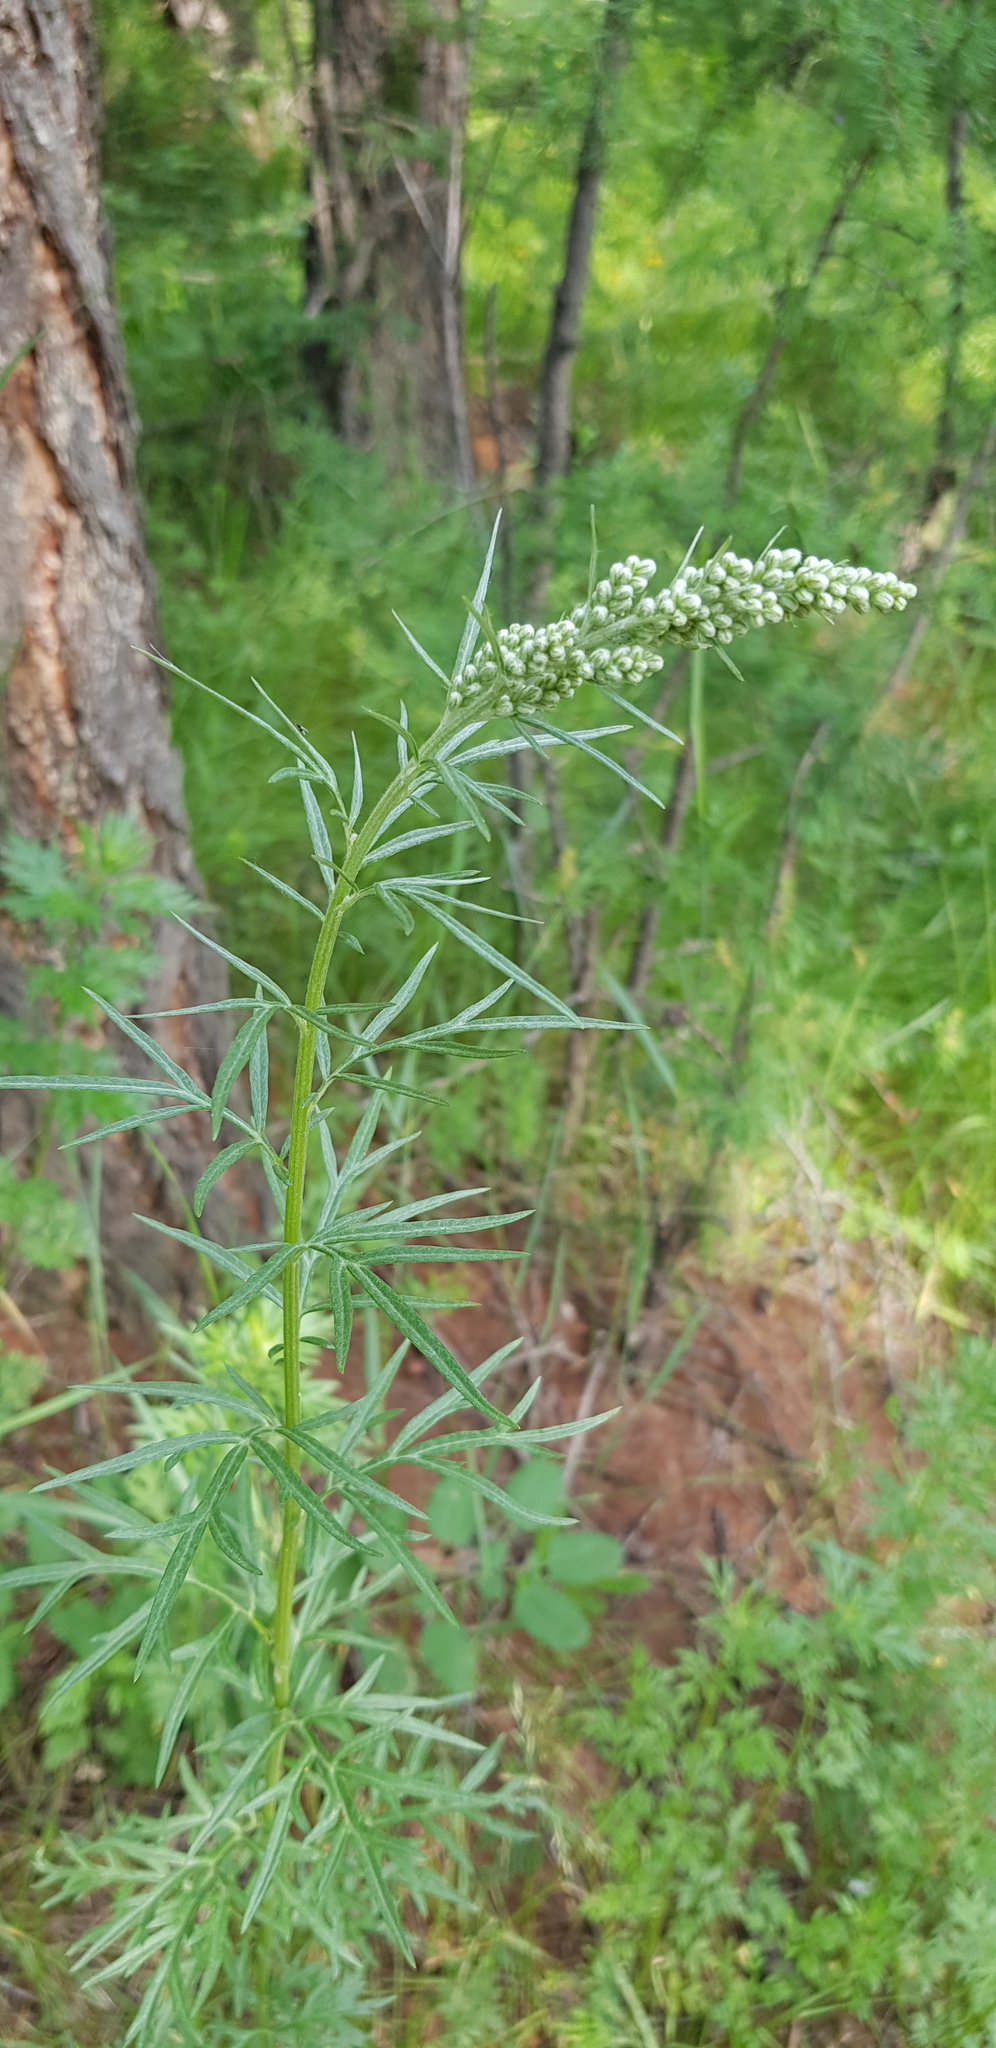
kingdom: Plantae
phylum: Tracheophyta
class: Magnoliopsida
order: Asterales
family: Asteraceae
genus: Artemisia
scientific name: Artemisia vulgaris
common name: Mugwort
